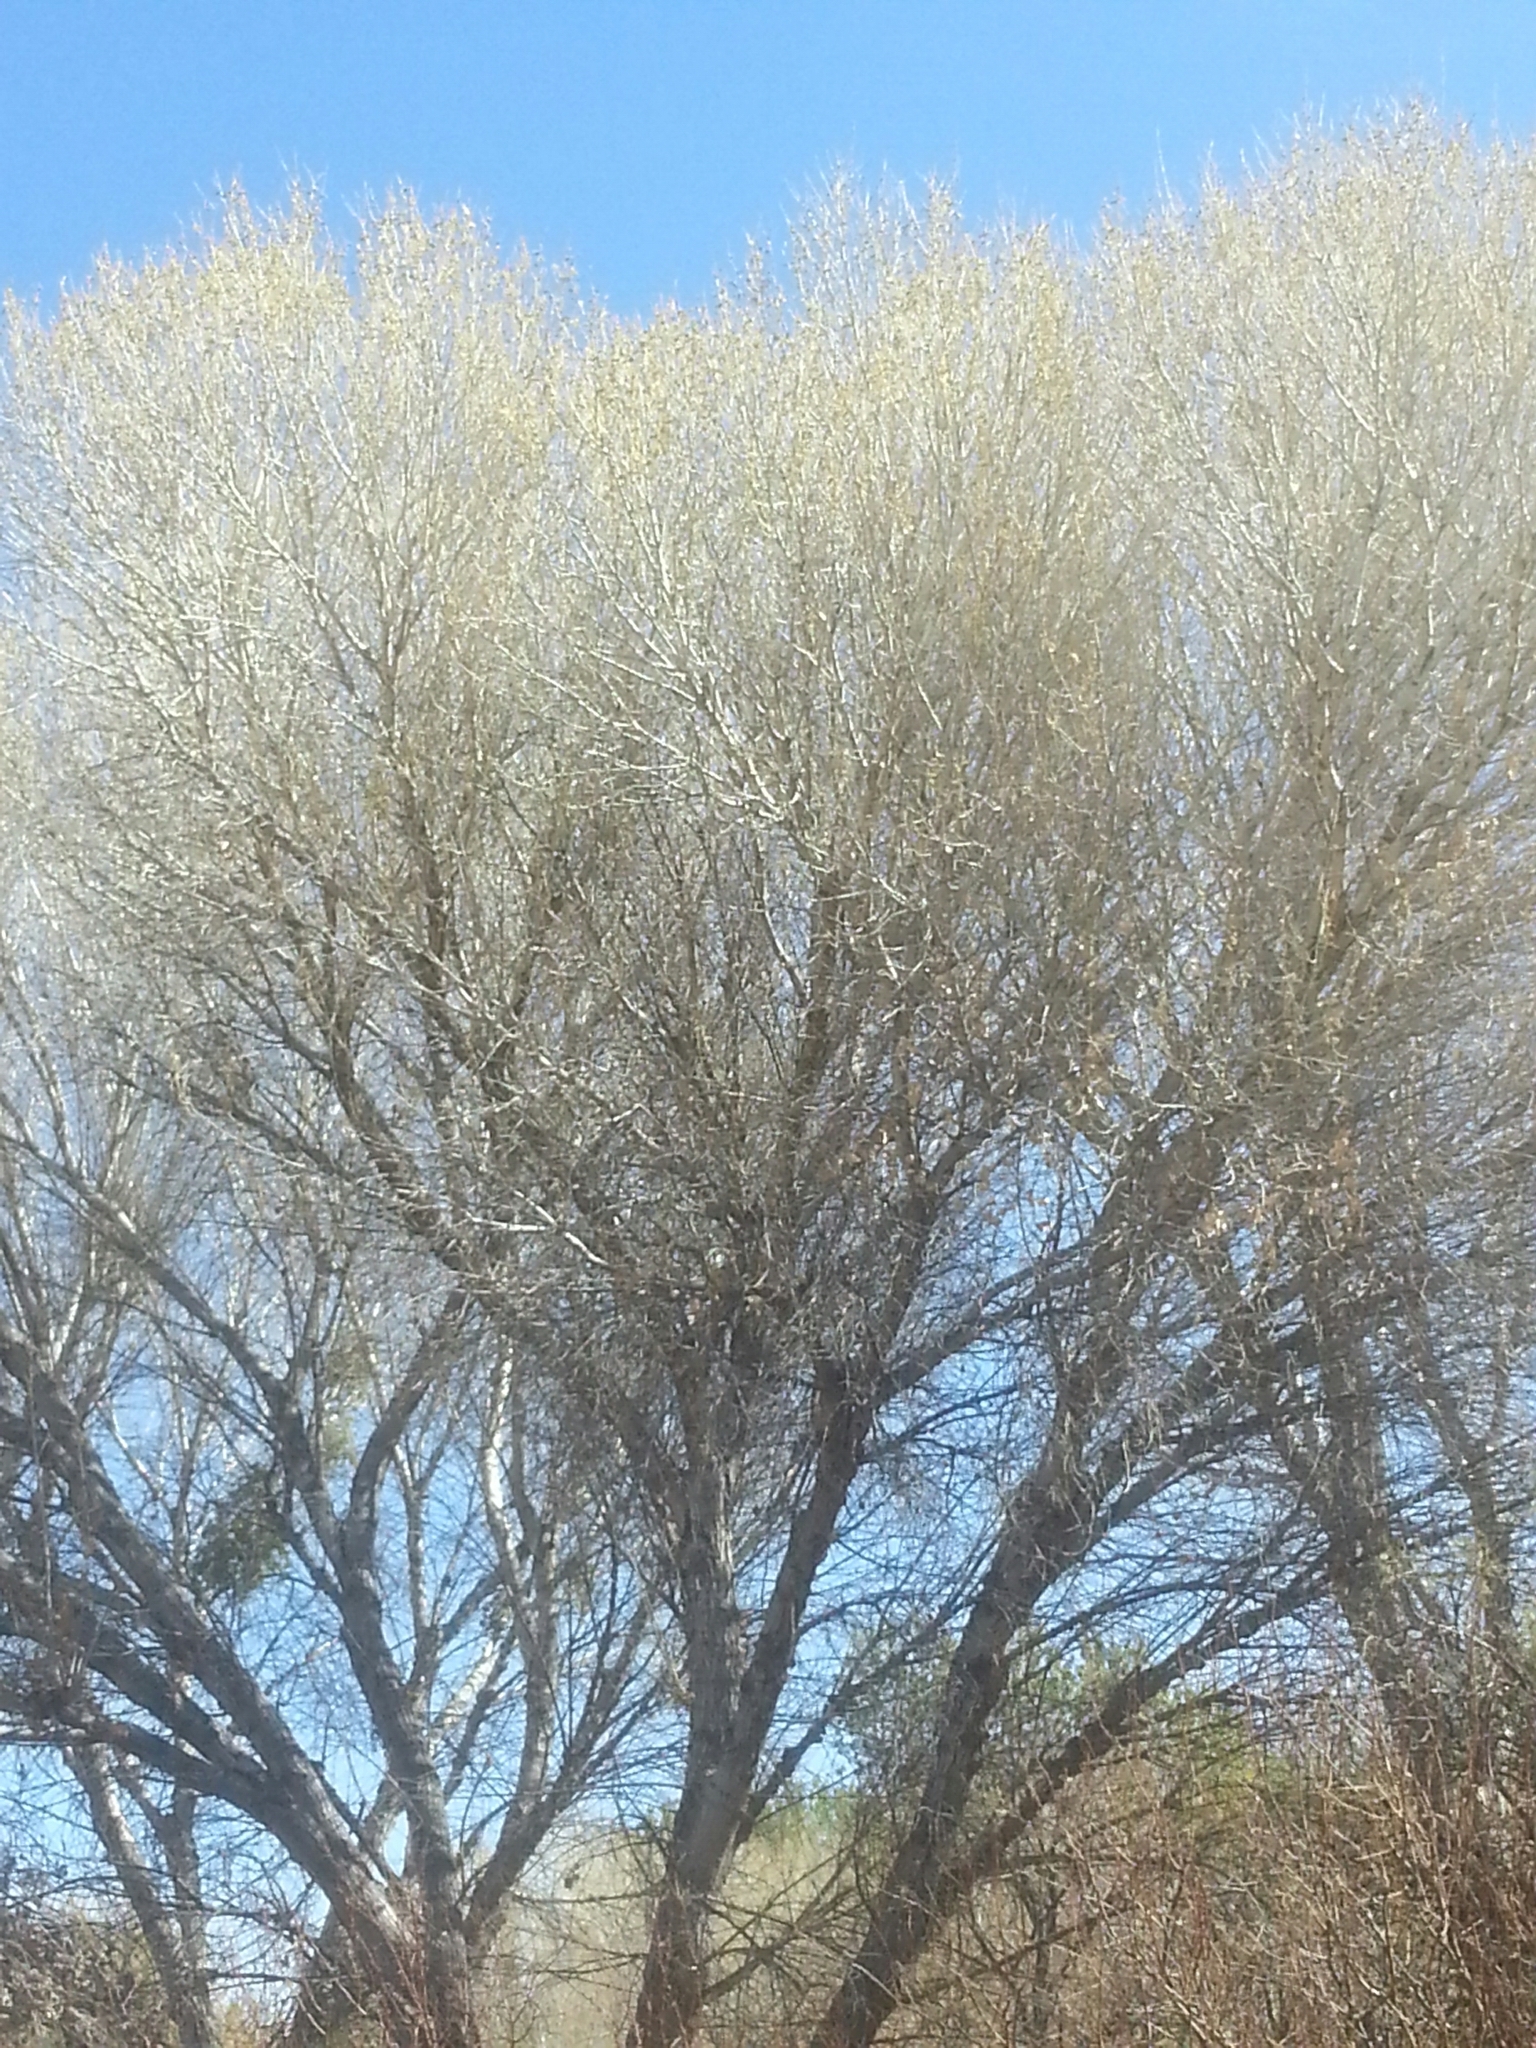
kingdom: Plantae
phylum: Tracheophyta
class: Magnoliopsida
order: Malpighiales
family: Salicaceae
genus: Populus
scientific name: Populus fremontii
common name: Fremont's cottonwood
